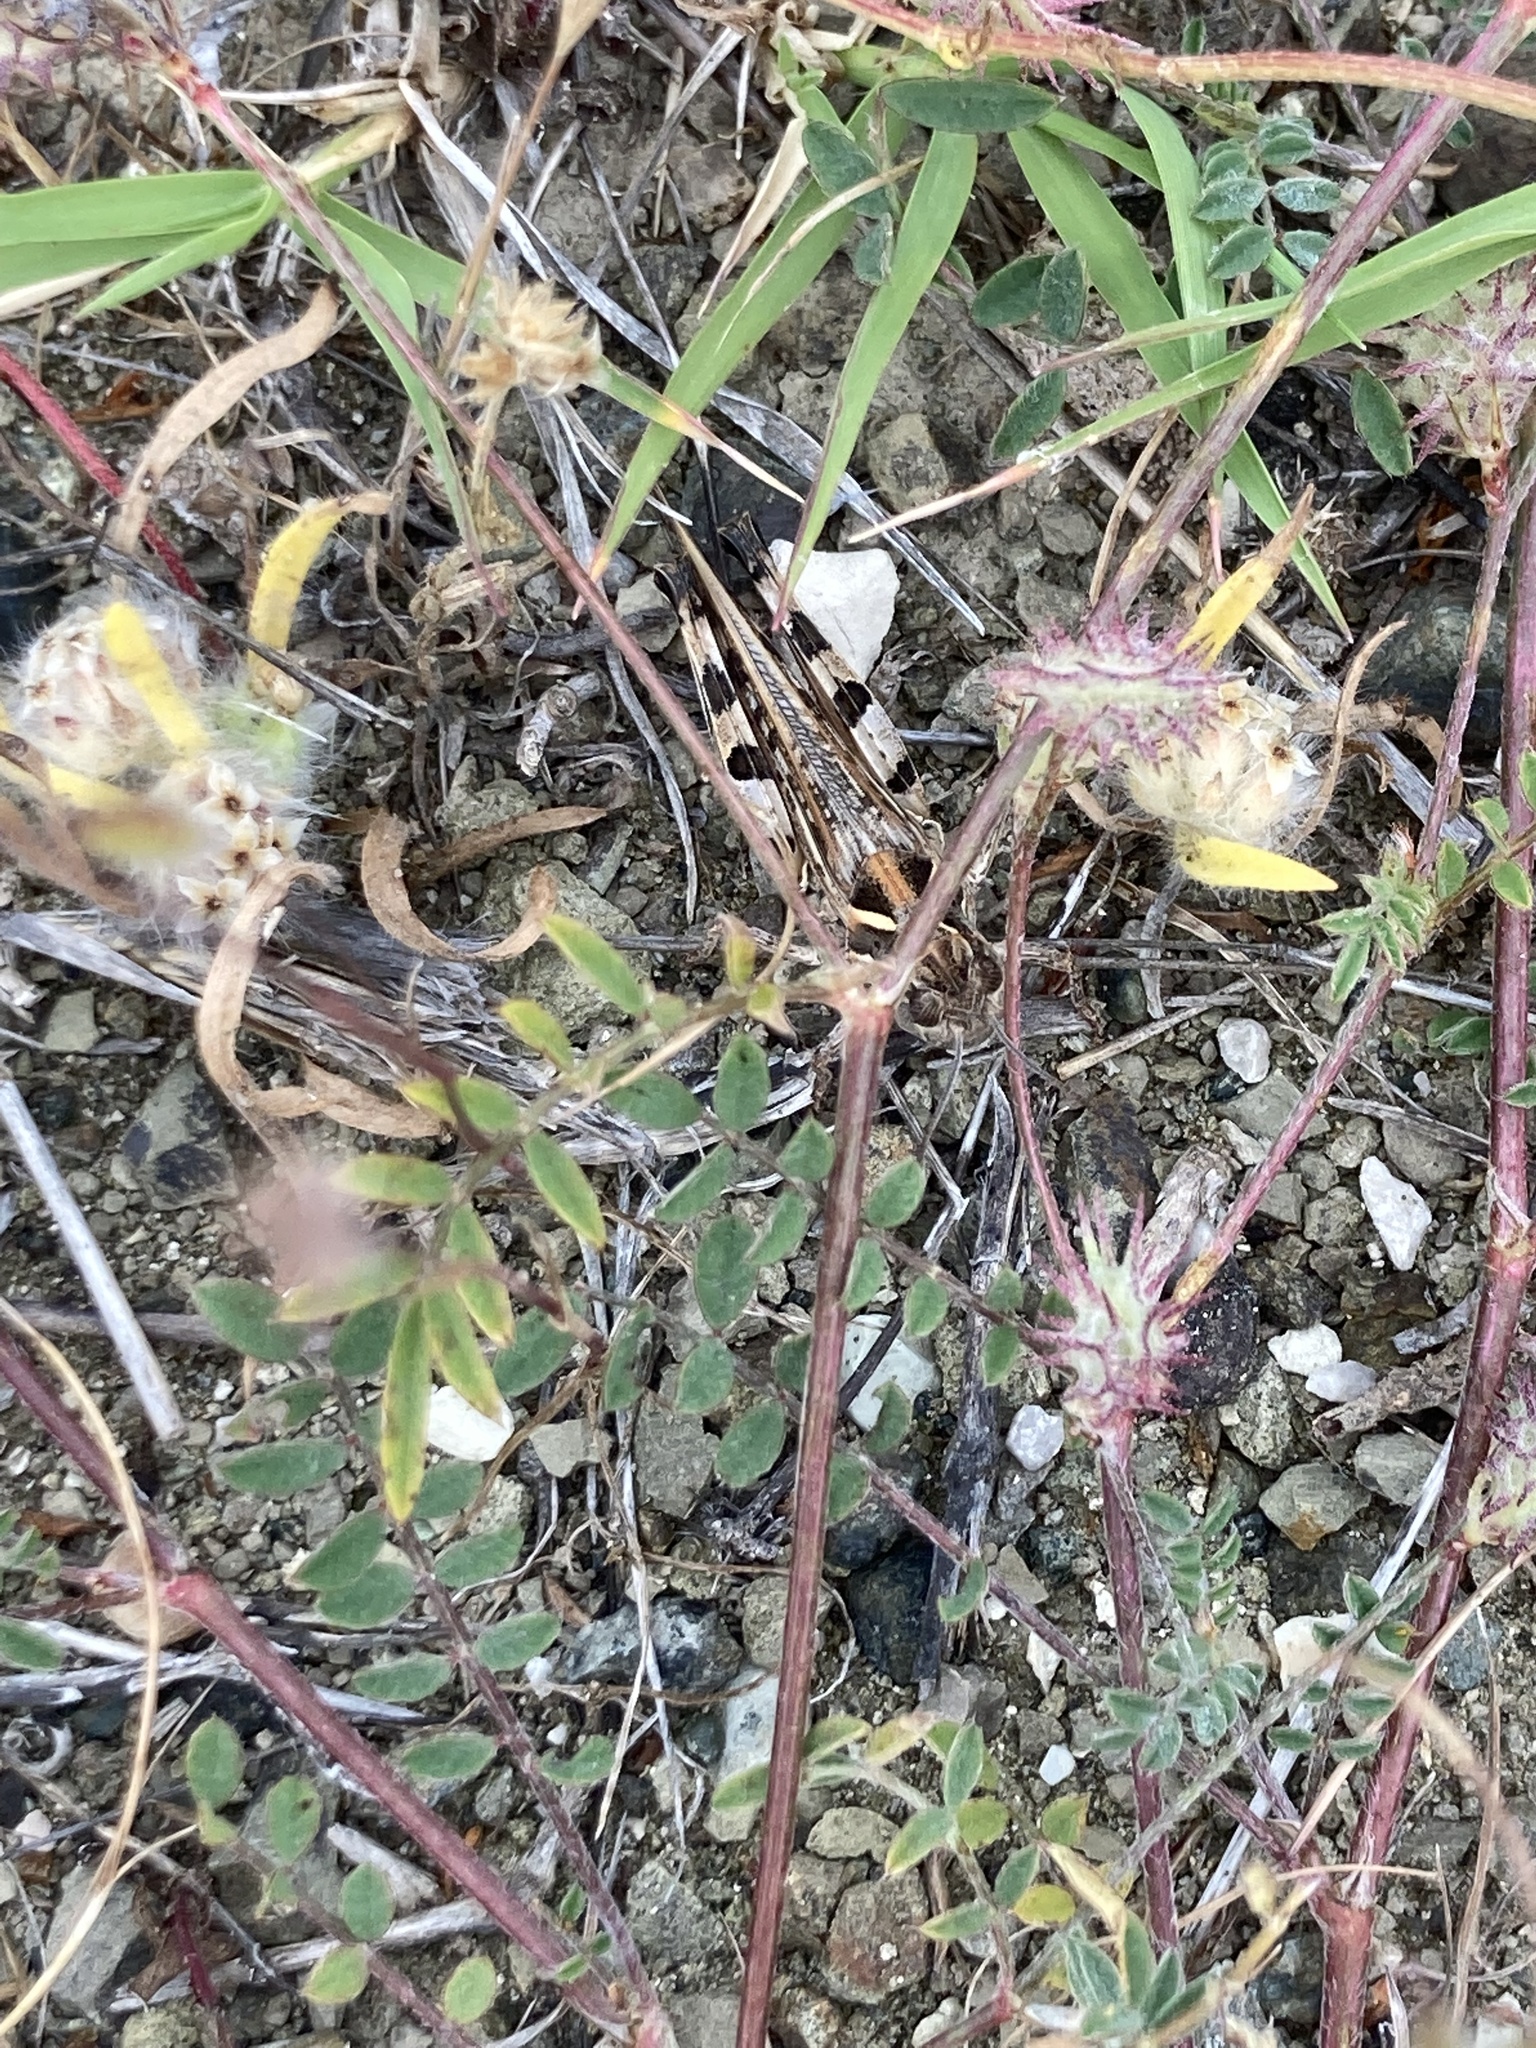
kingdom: Animalia
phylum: Arthropoda
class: Insecta
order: Orthoptera
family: Acrididae
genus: Dociostaurus
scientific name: Dociostaurus maroccanus
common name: Moroccan locust
